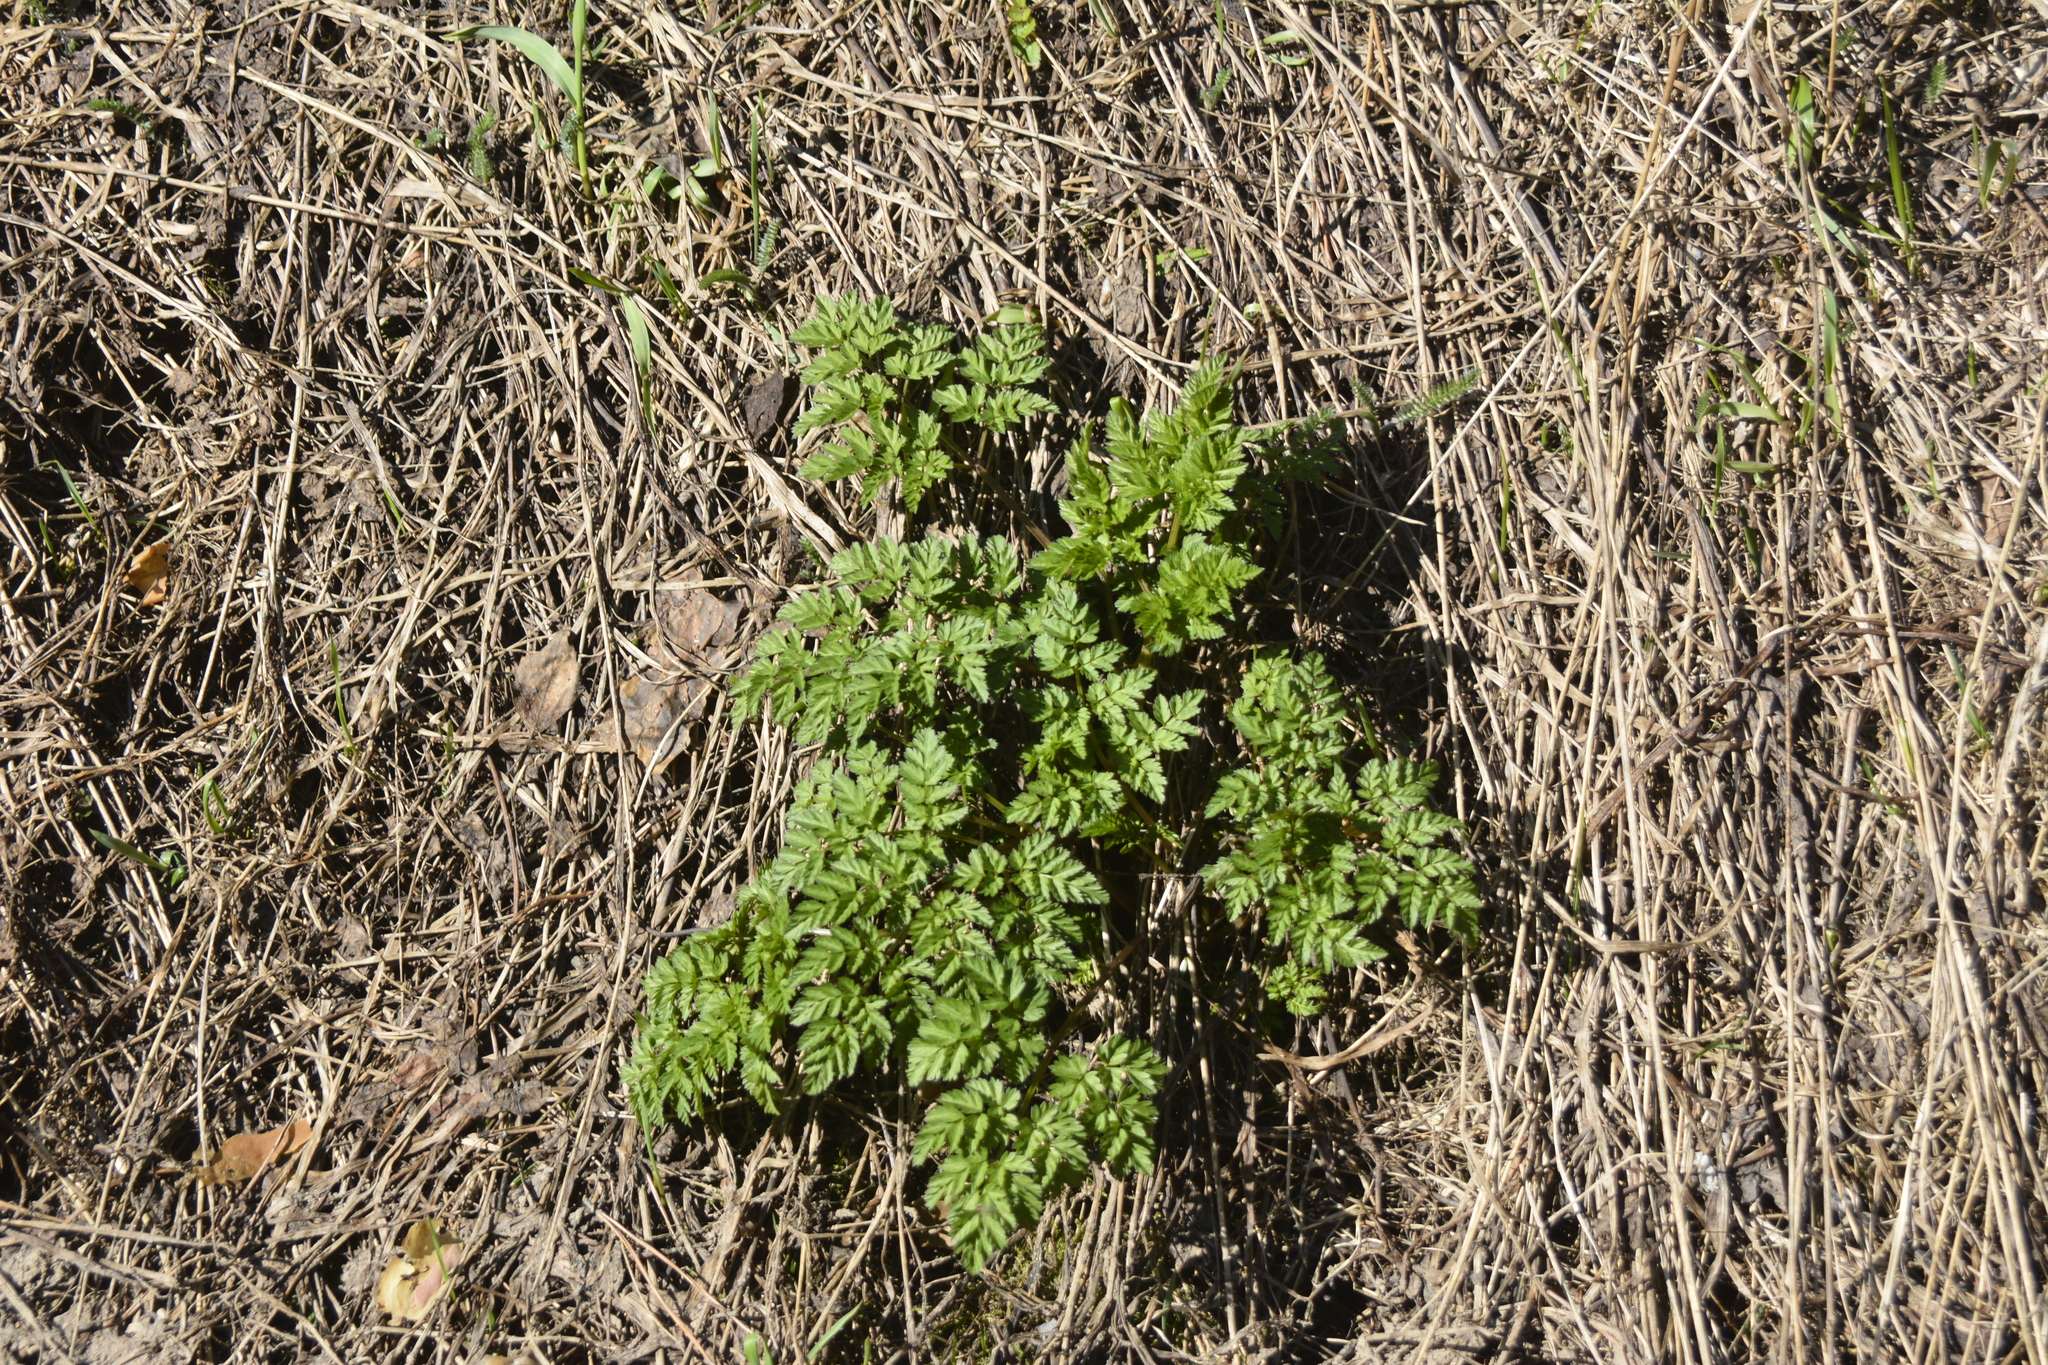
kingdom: Plantae
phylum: Tracheophyta
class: Magnoliopsida
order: Apiales
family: Apiaceae
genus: Anthriscus
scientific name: Anthriscus sylvestris
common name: Cow parsley
